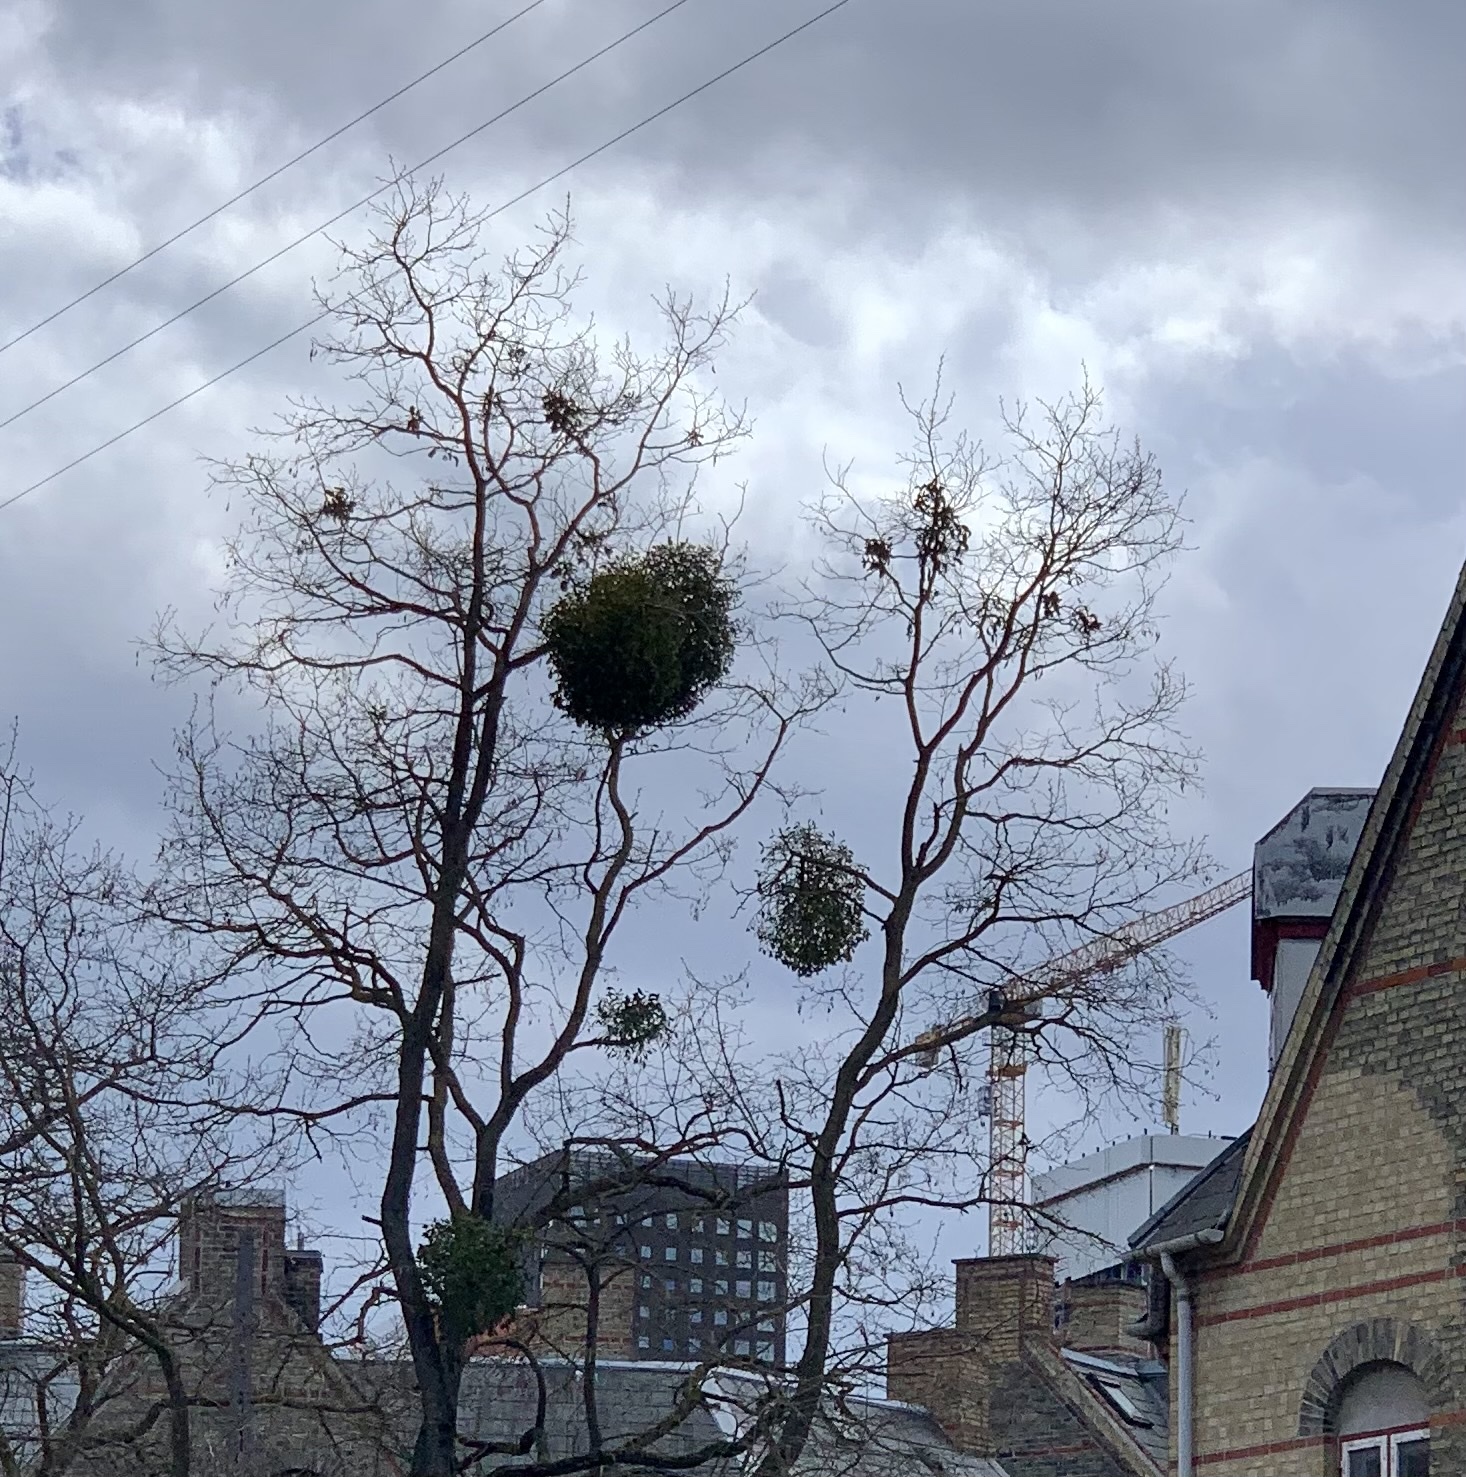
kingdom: Plantae
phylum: Tracheophyta
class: Magnoliopsida
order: Santalales
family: Viscaceae
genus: Viscum
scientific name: Viscum album
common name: Mistletoe
